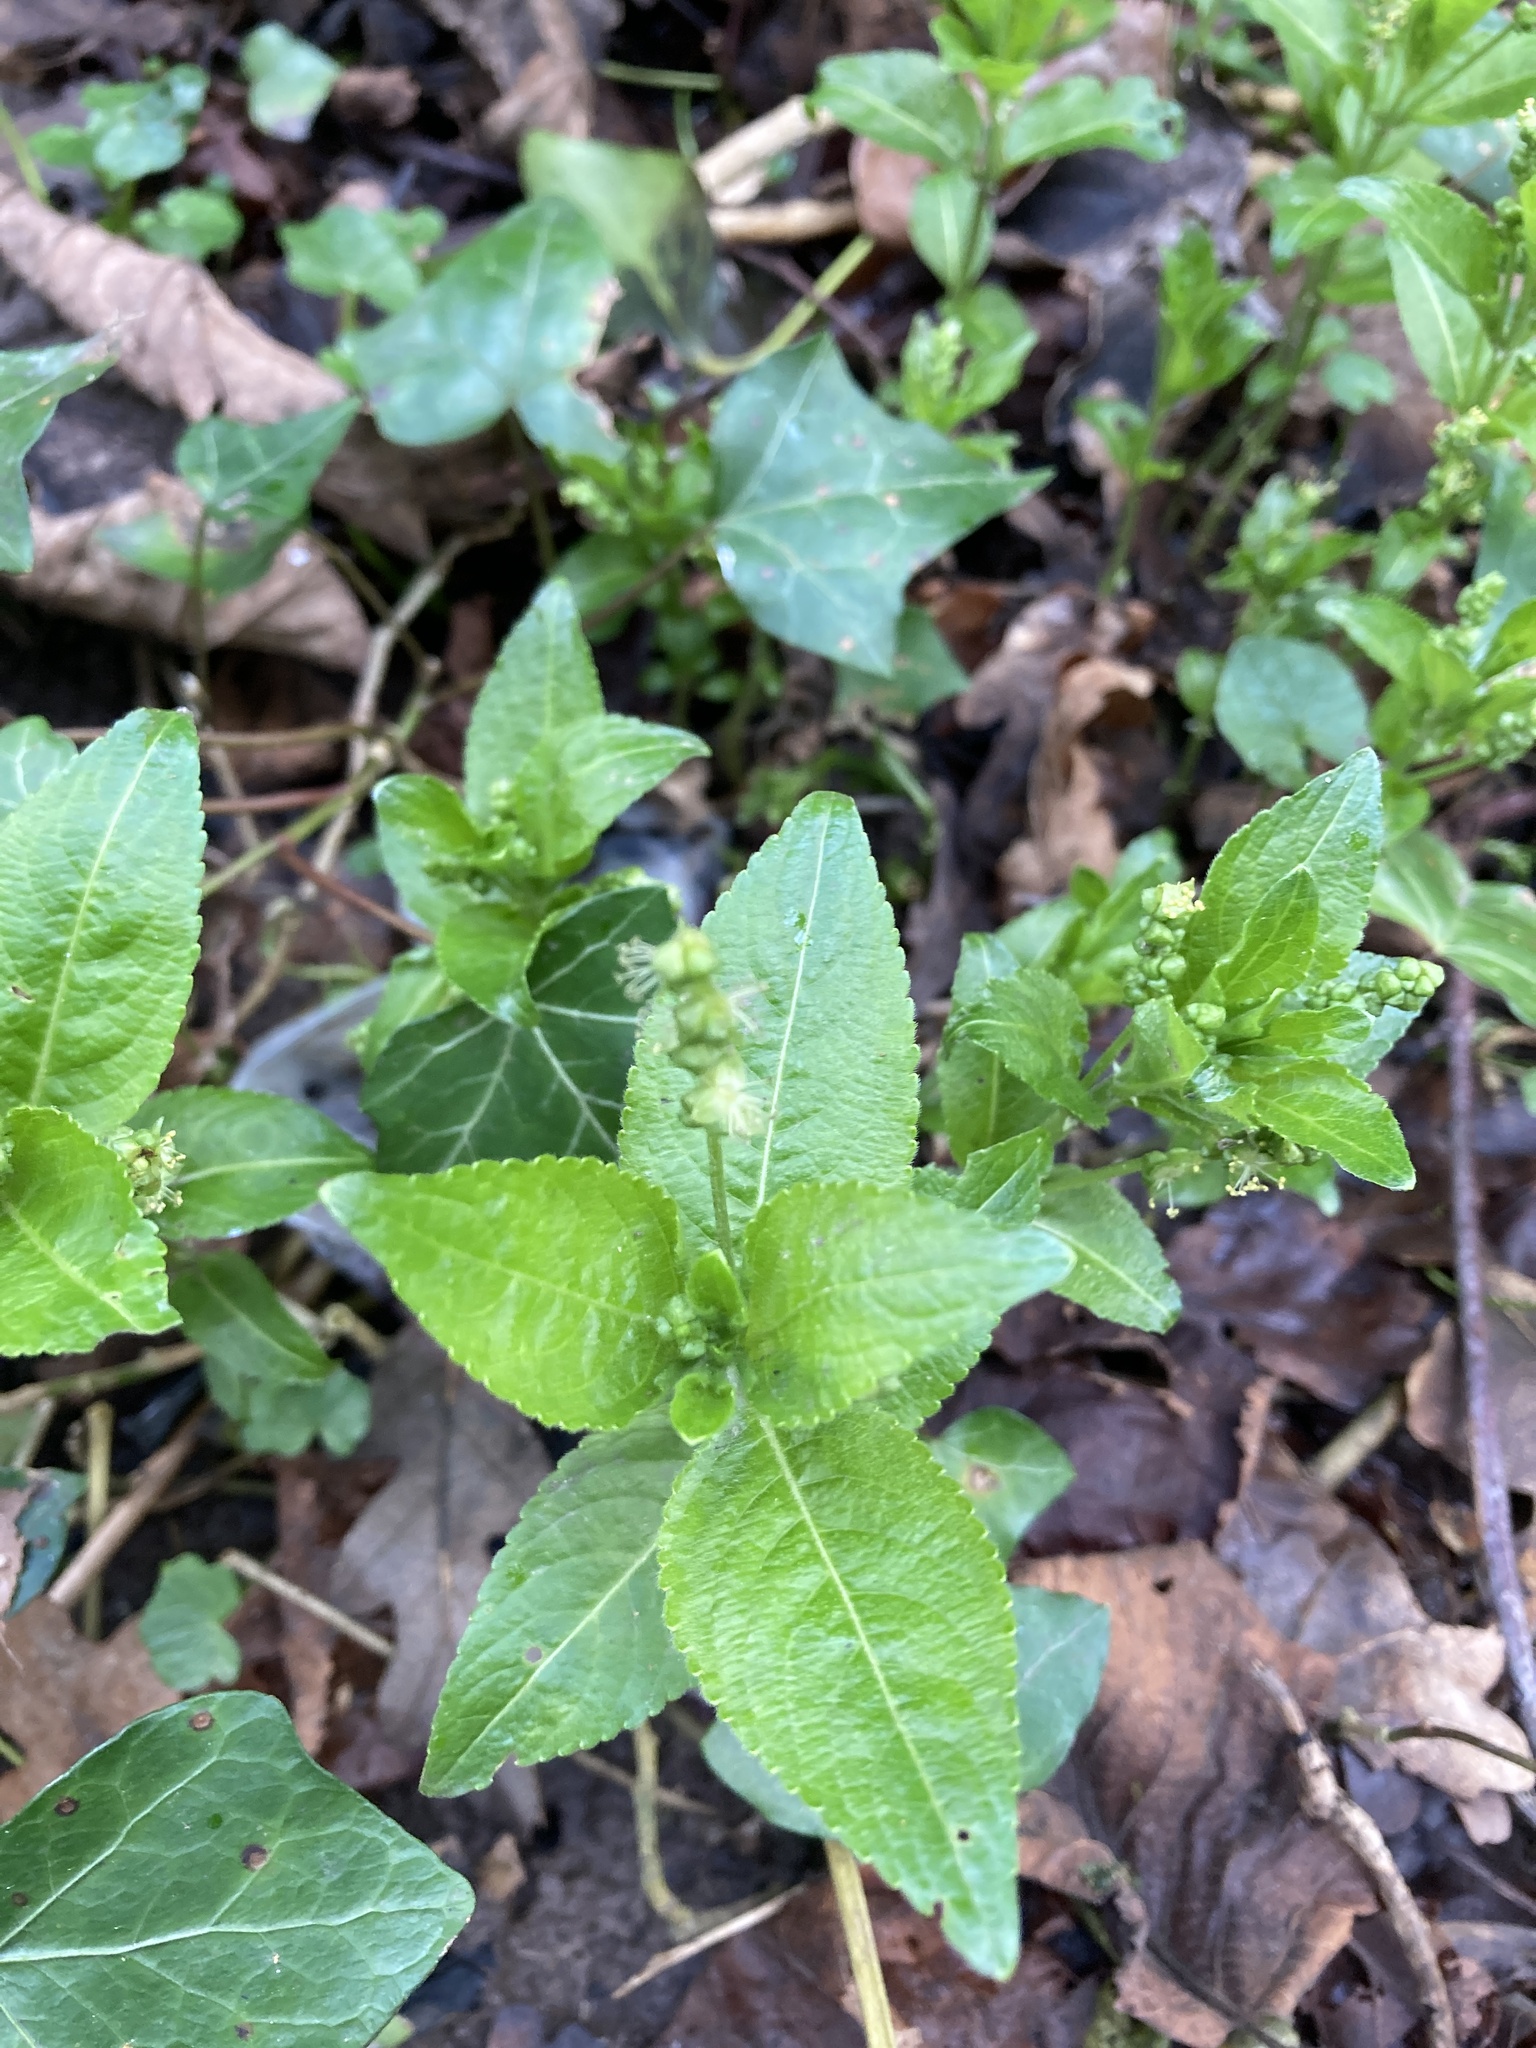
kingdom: Plantae
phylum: Tracheophyta
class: Magnoliopsida
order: Malpighiales
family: Euphorbiaceae
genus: Mercurialis
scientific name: Mercurialis perennis
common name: Dog mercury
